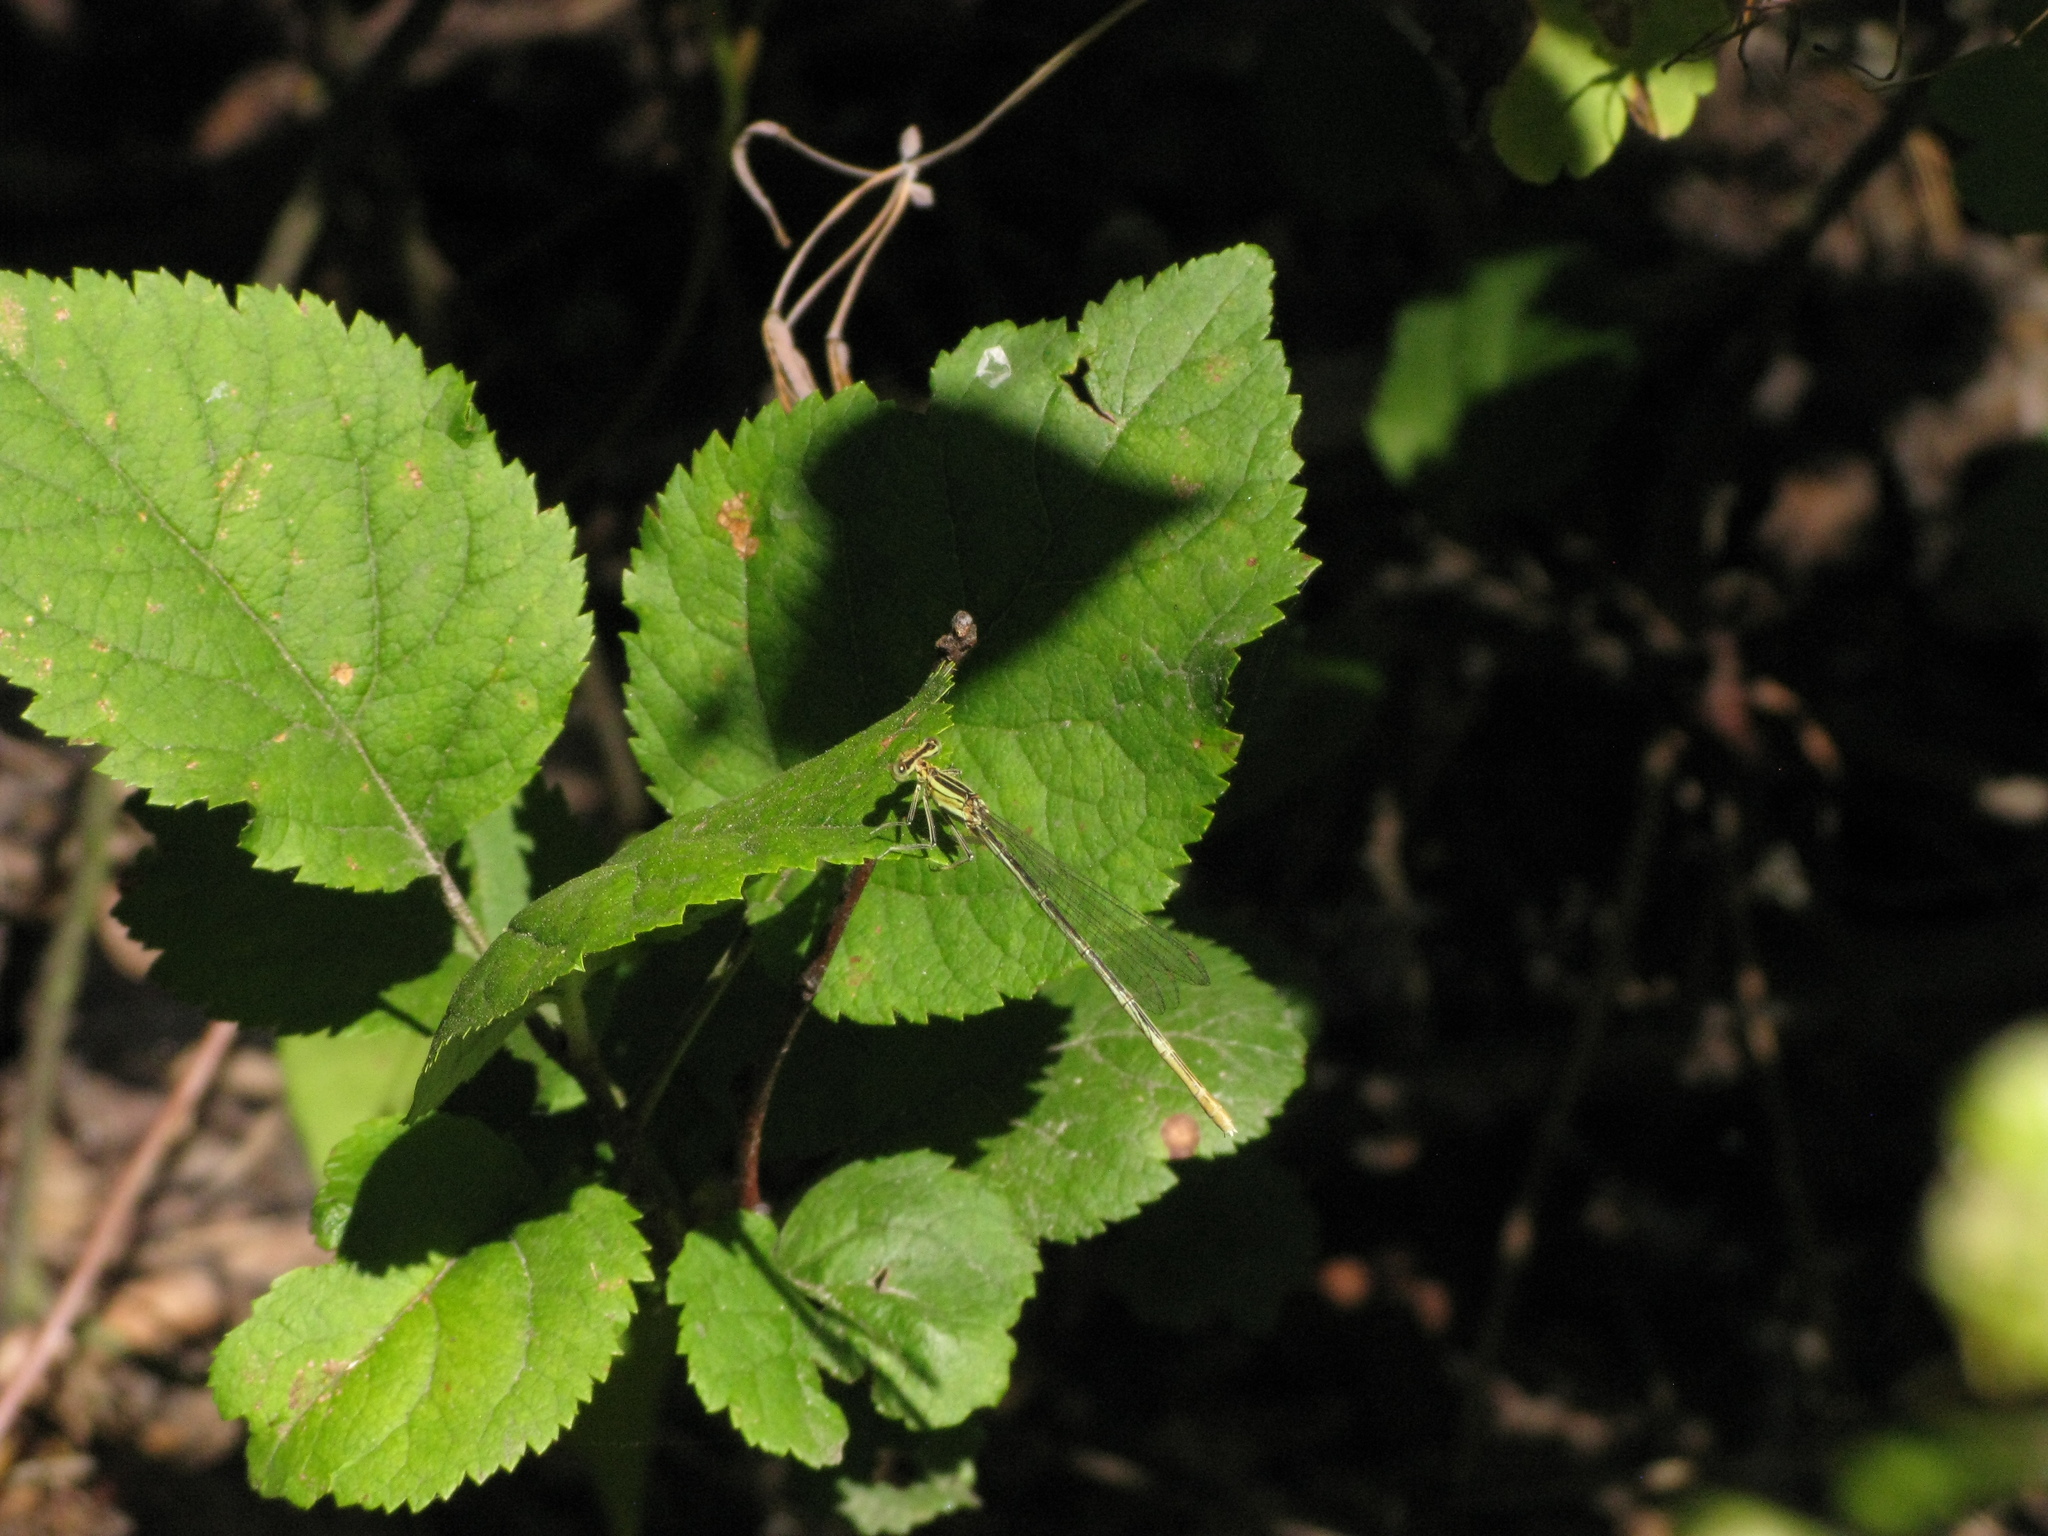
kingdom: Animalia
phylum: Arthropoda
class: Insecta
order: Odonata
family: Platycnemididae
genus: Platycnemis
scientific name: Platycnemis pennipes
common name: White-legged damselfly
